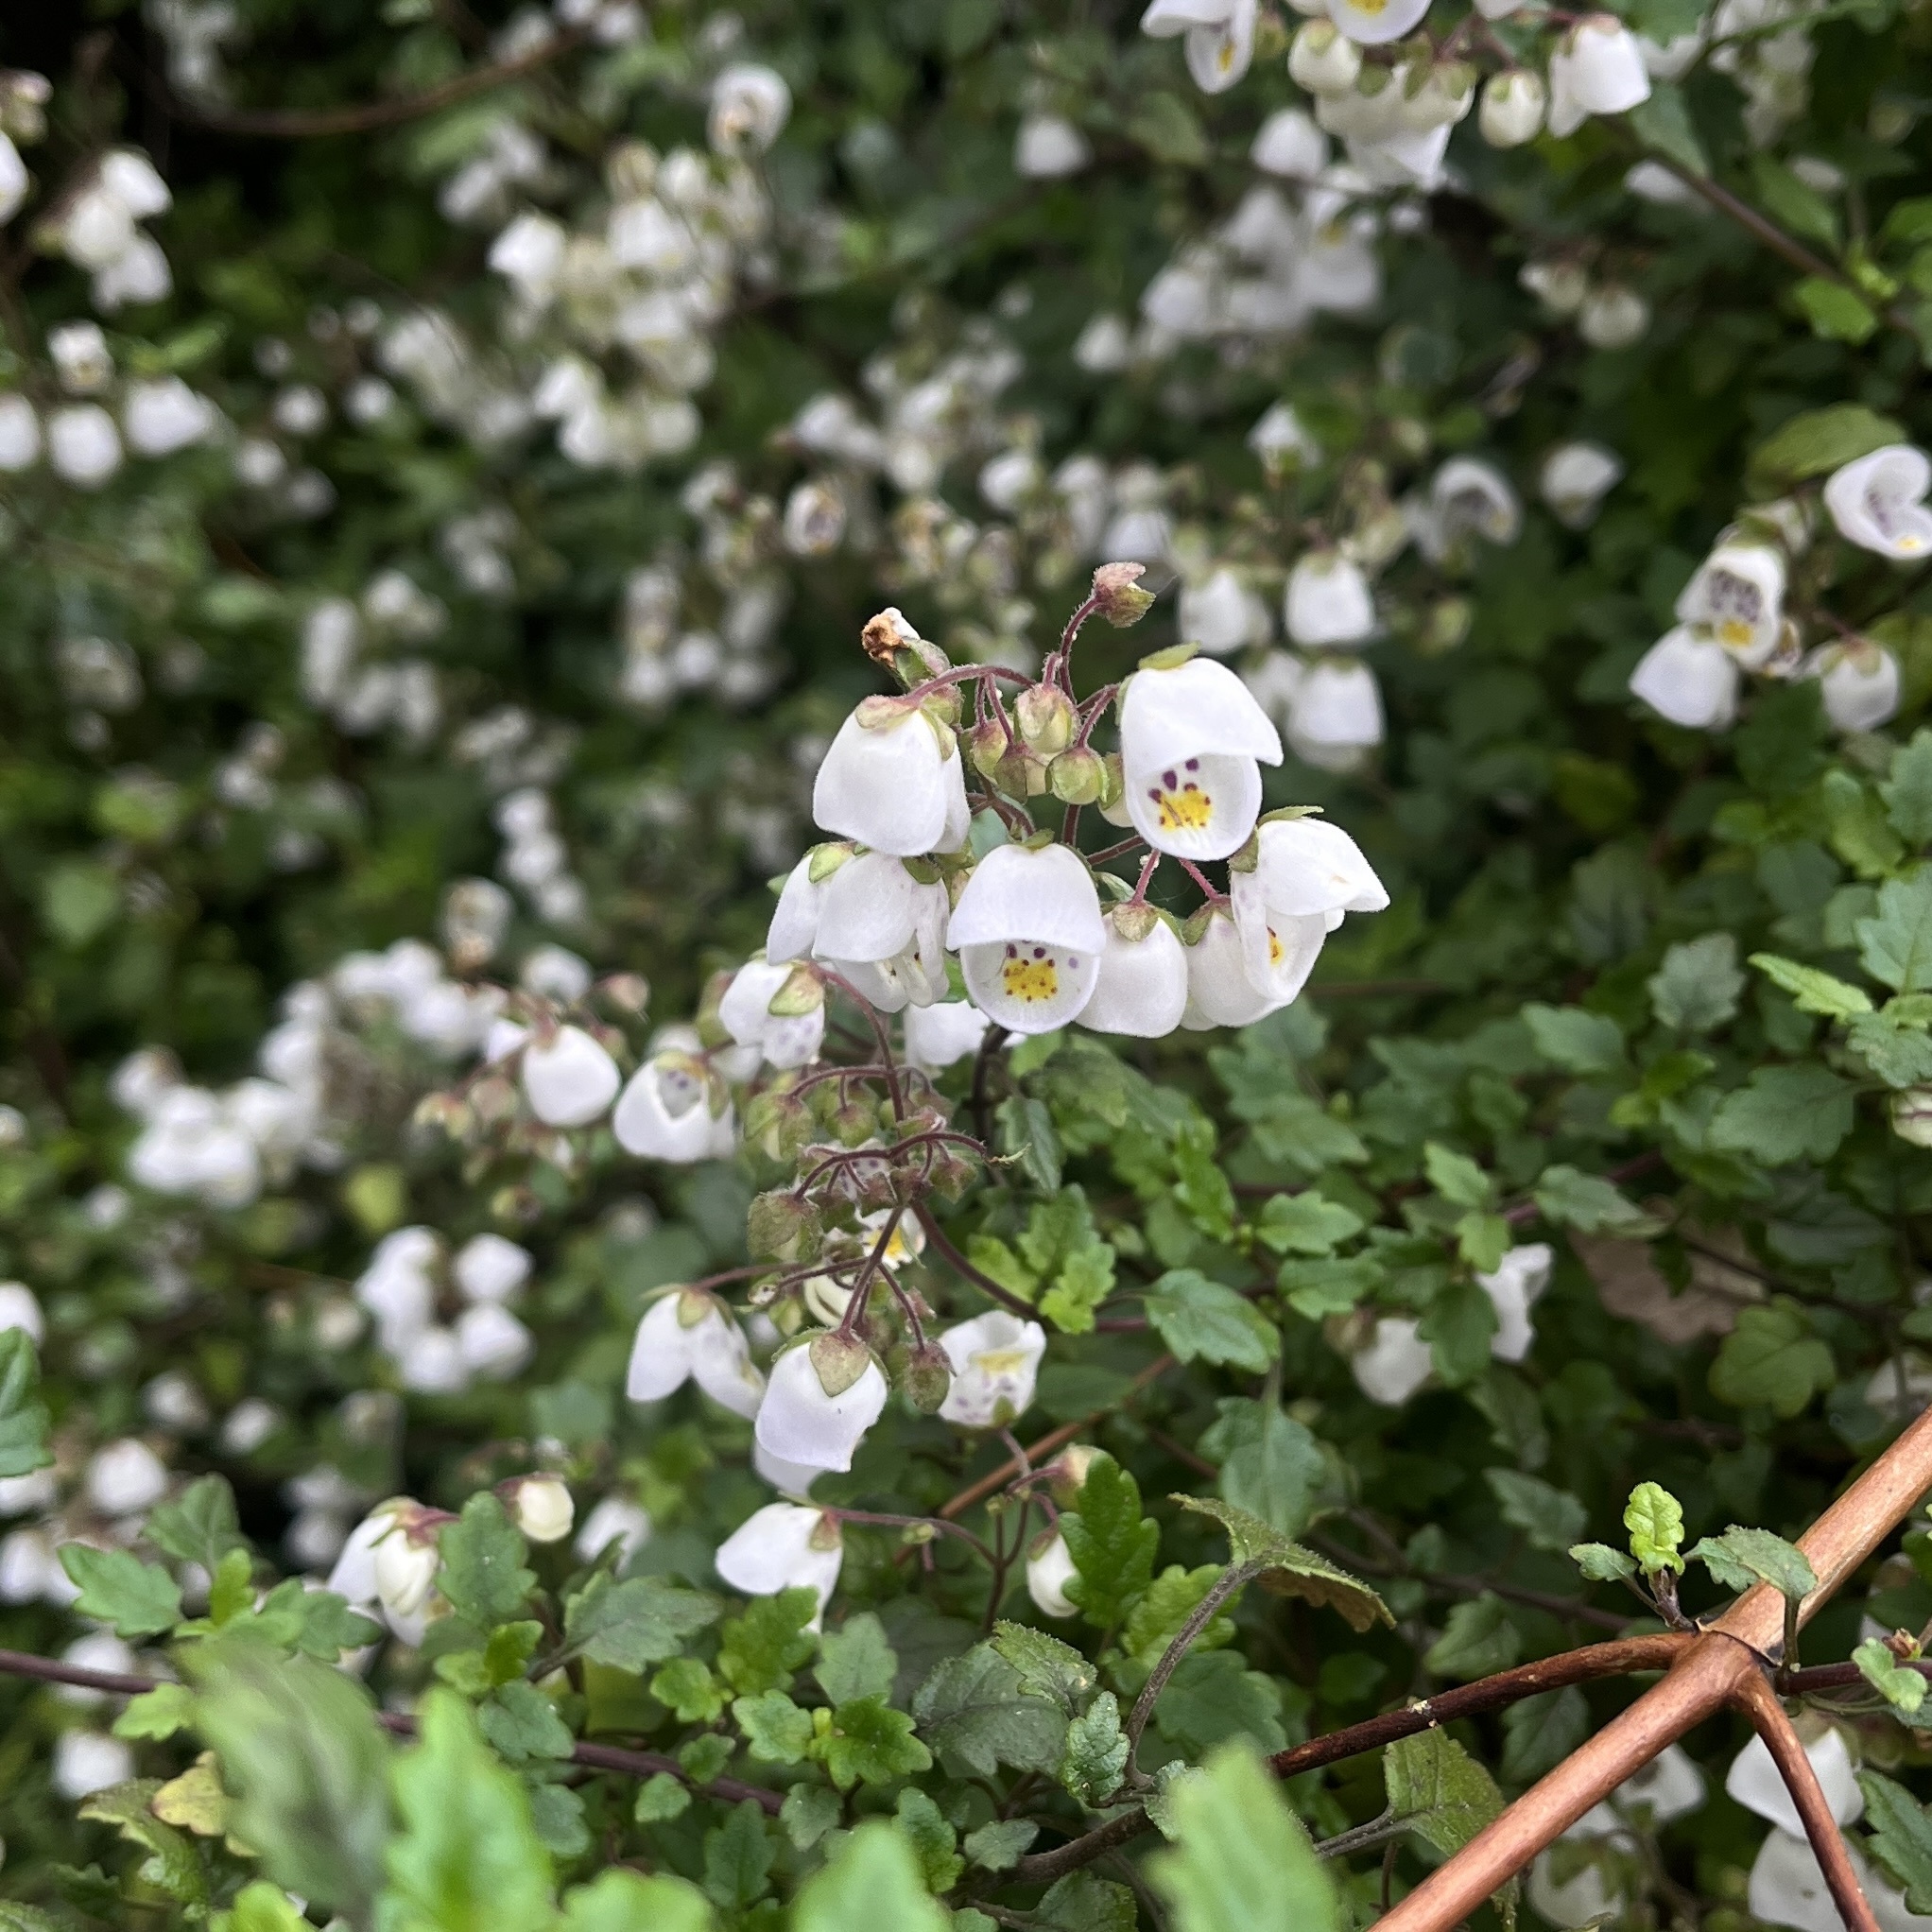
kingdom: Plantae
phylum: Tracheophyta
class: Magnoliopsida
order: Lamiales
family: Calceolariaceae
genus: Jovellana
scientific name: Jovellana violacea
